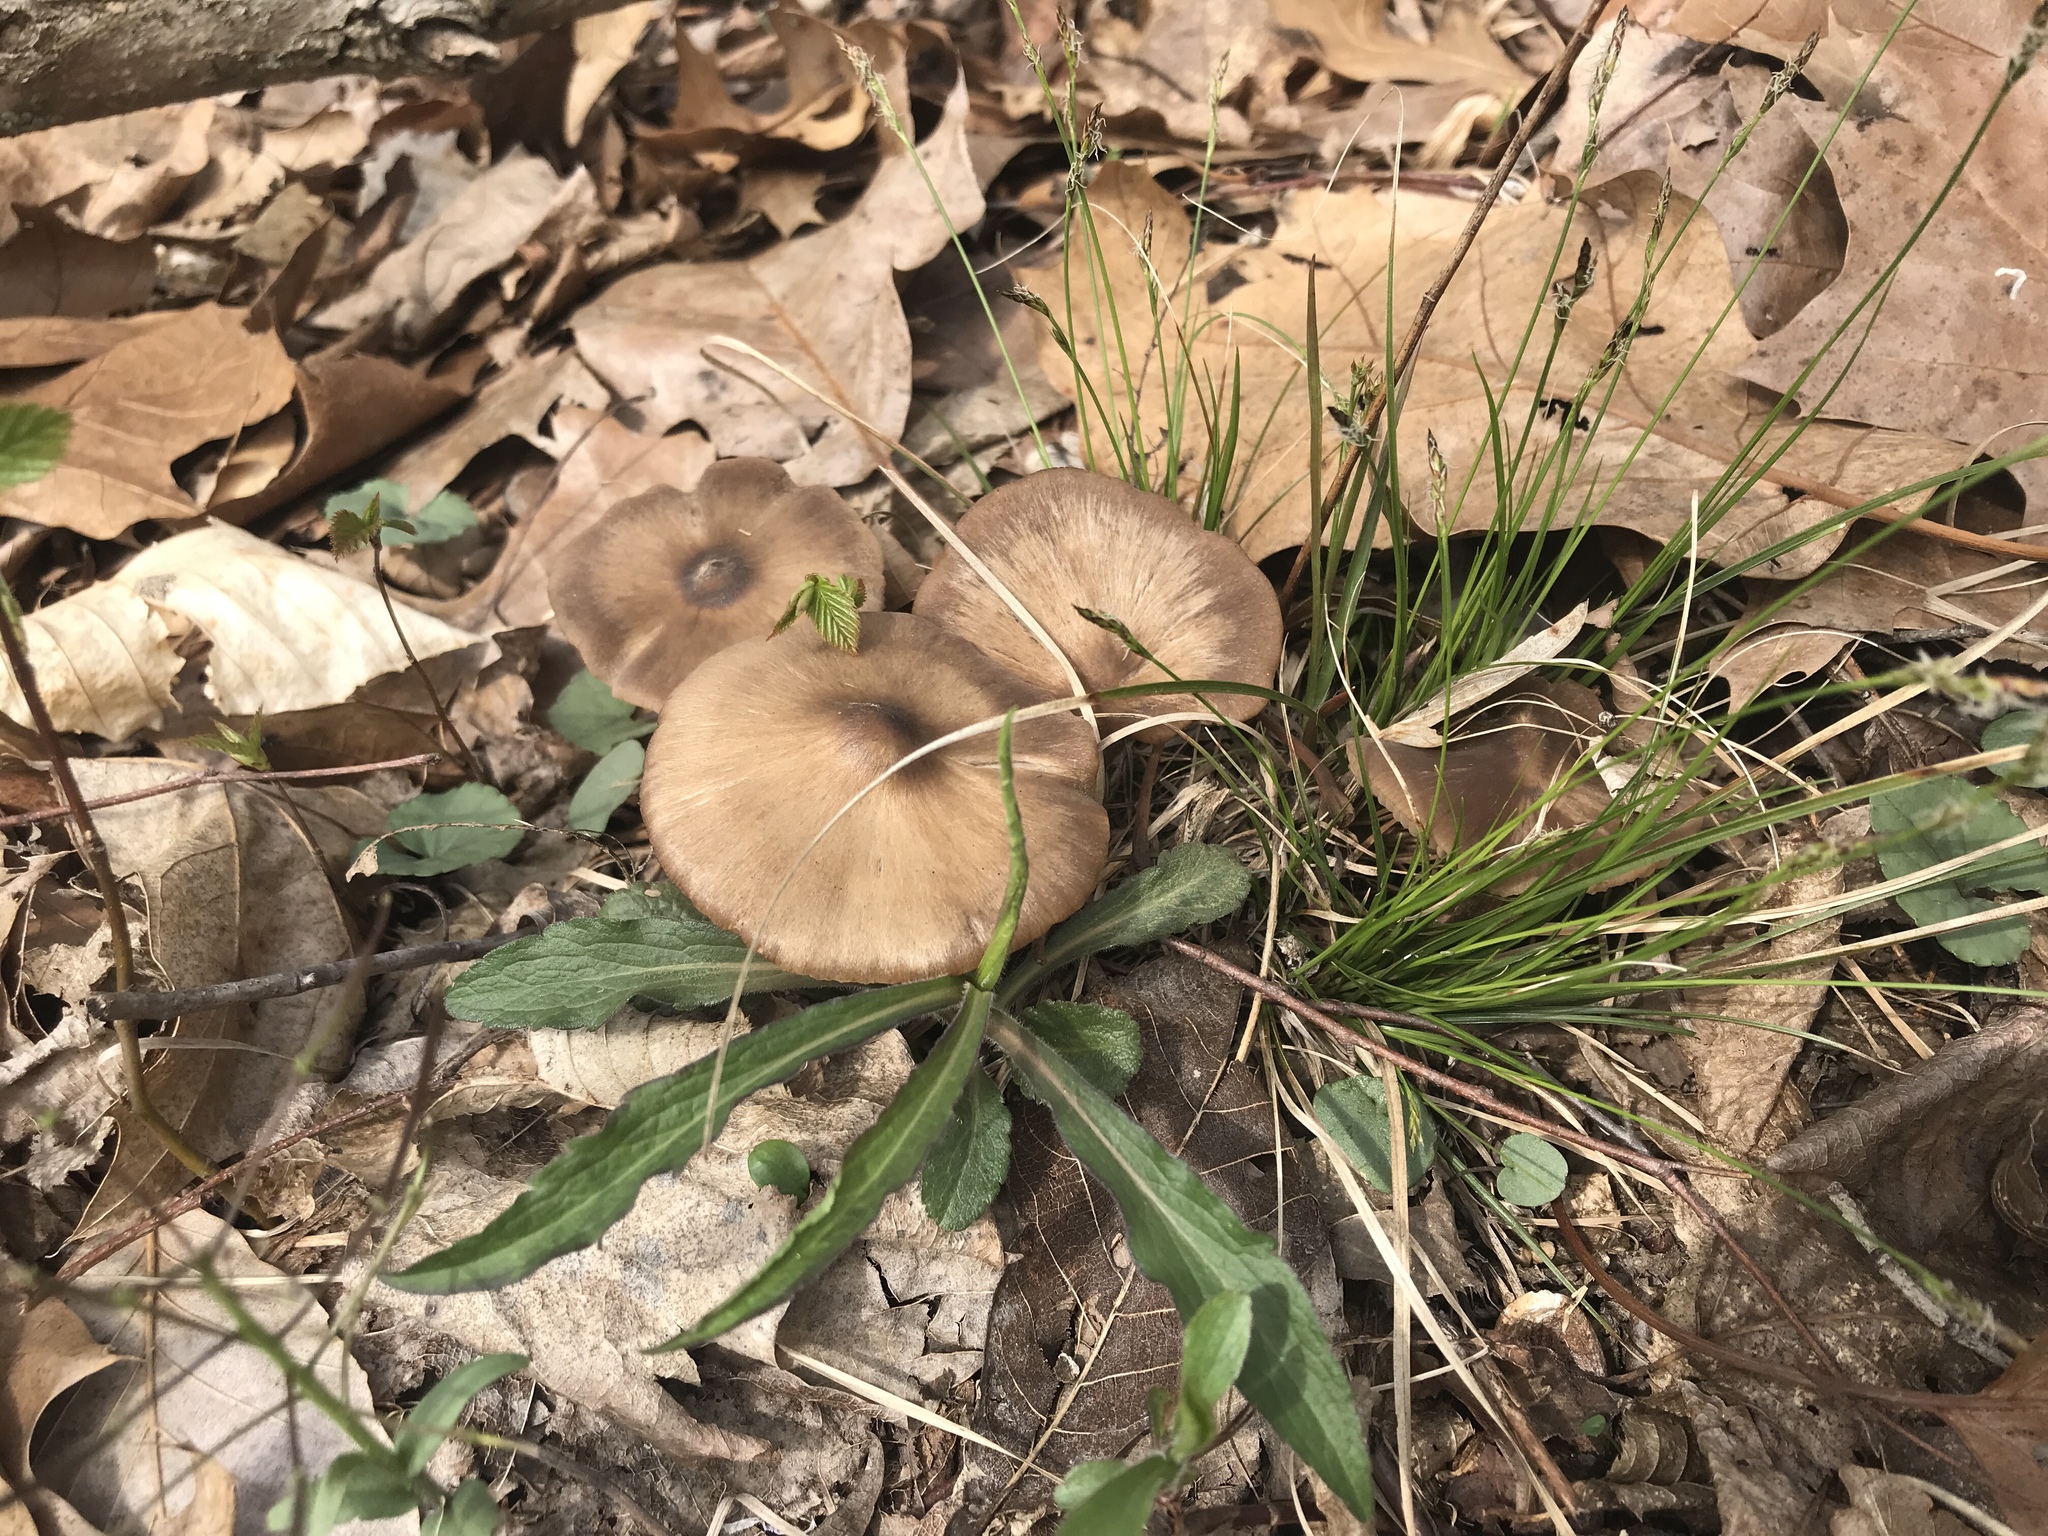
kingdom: Fungi
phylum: Basidiomycota
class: Agaricomycetes
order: Agaricales
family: Entolomataceae
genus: Entoloma
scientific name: Entoloma vernum
